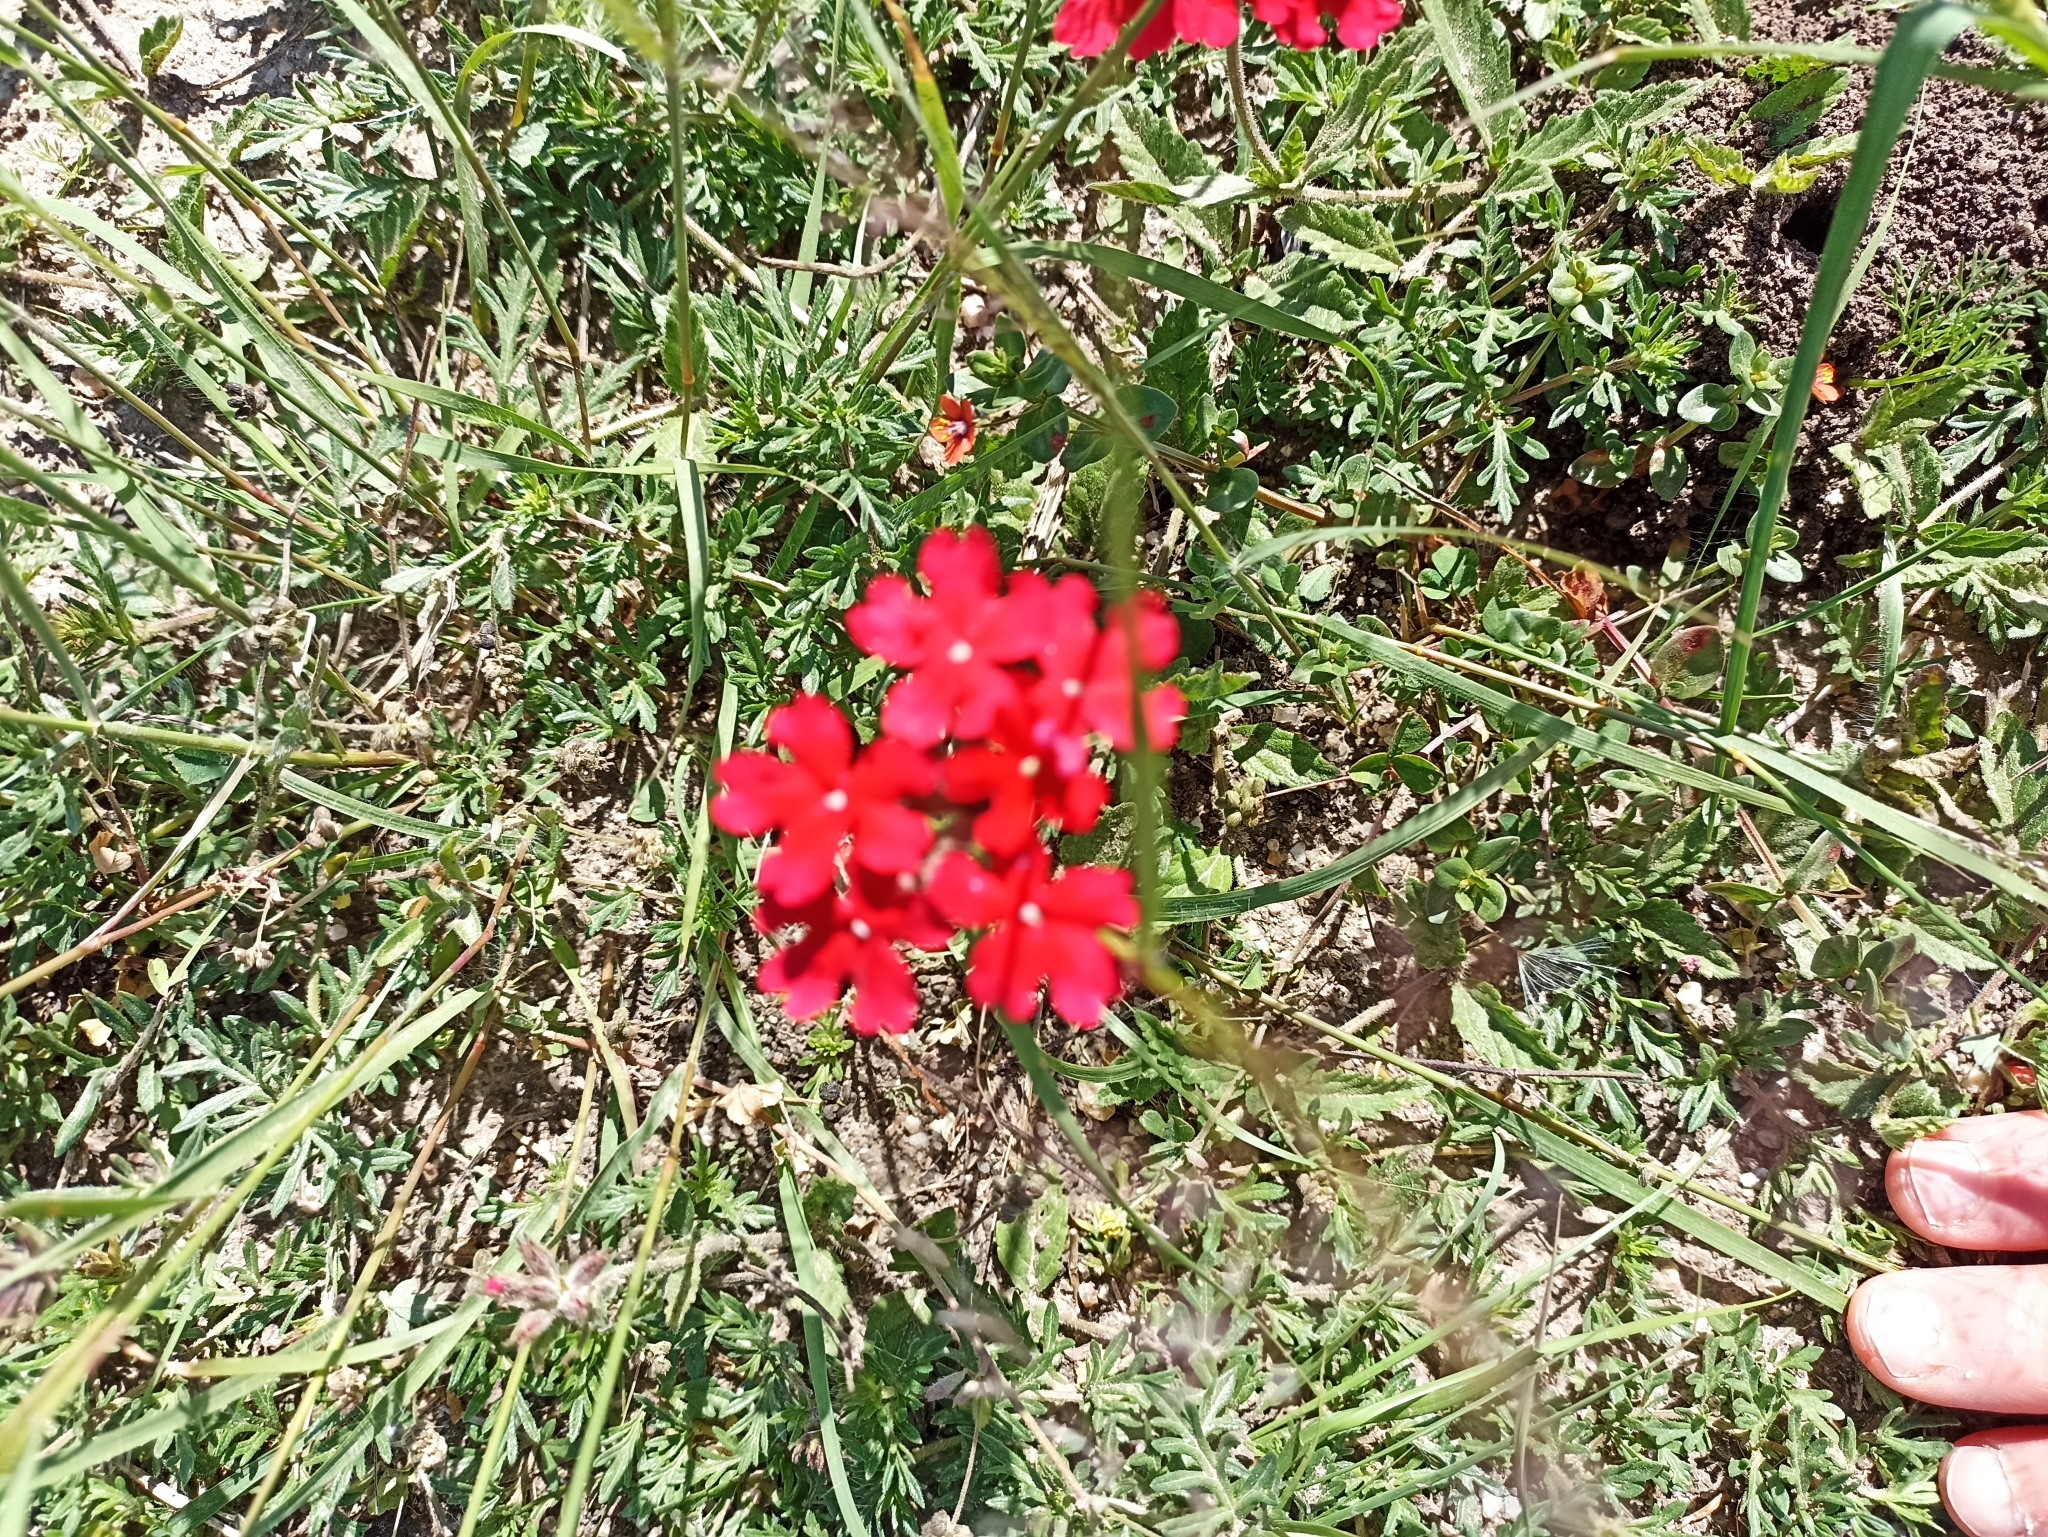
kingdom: Plantae
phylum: Tracheophyta
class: Magnoliopsida
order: Lamiales
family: Verbenaceae
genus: Verbena
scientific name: Verbena peruviana
